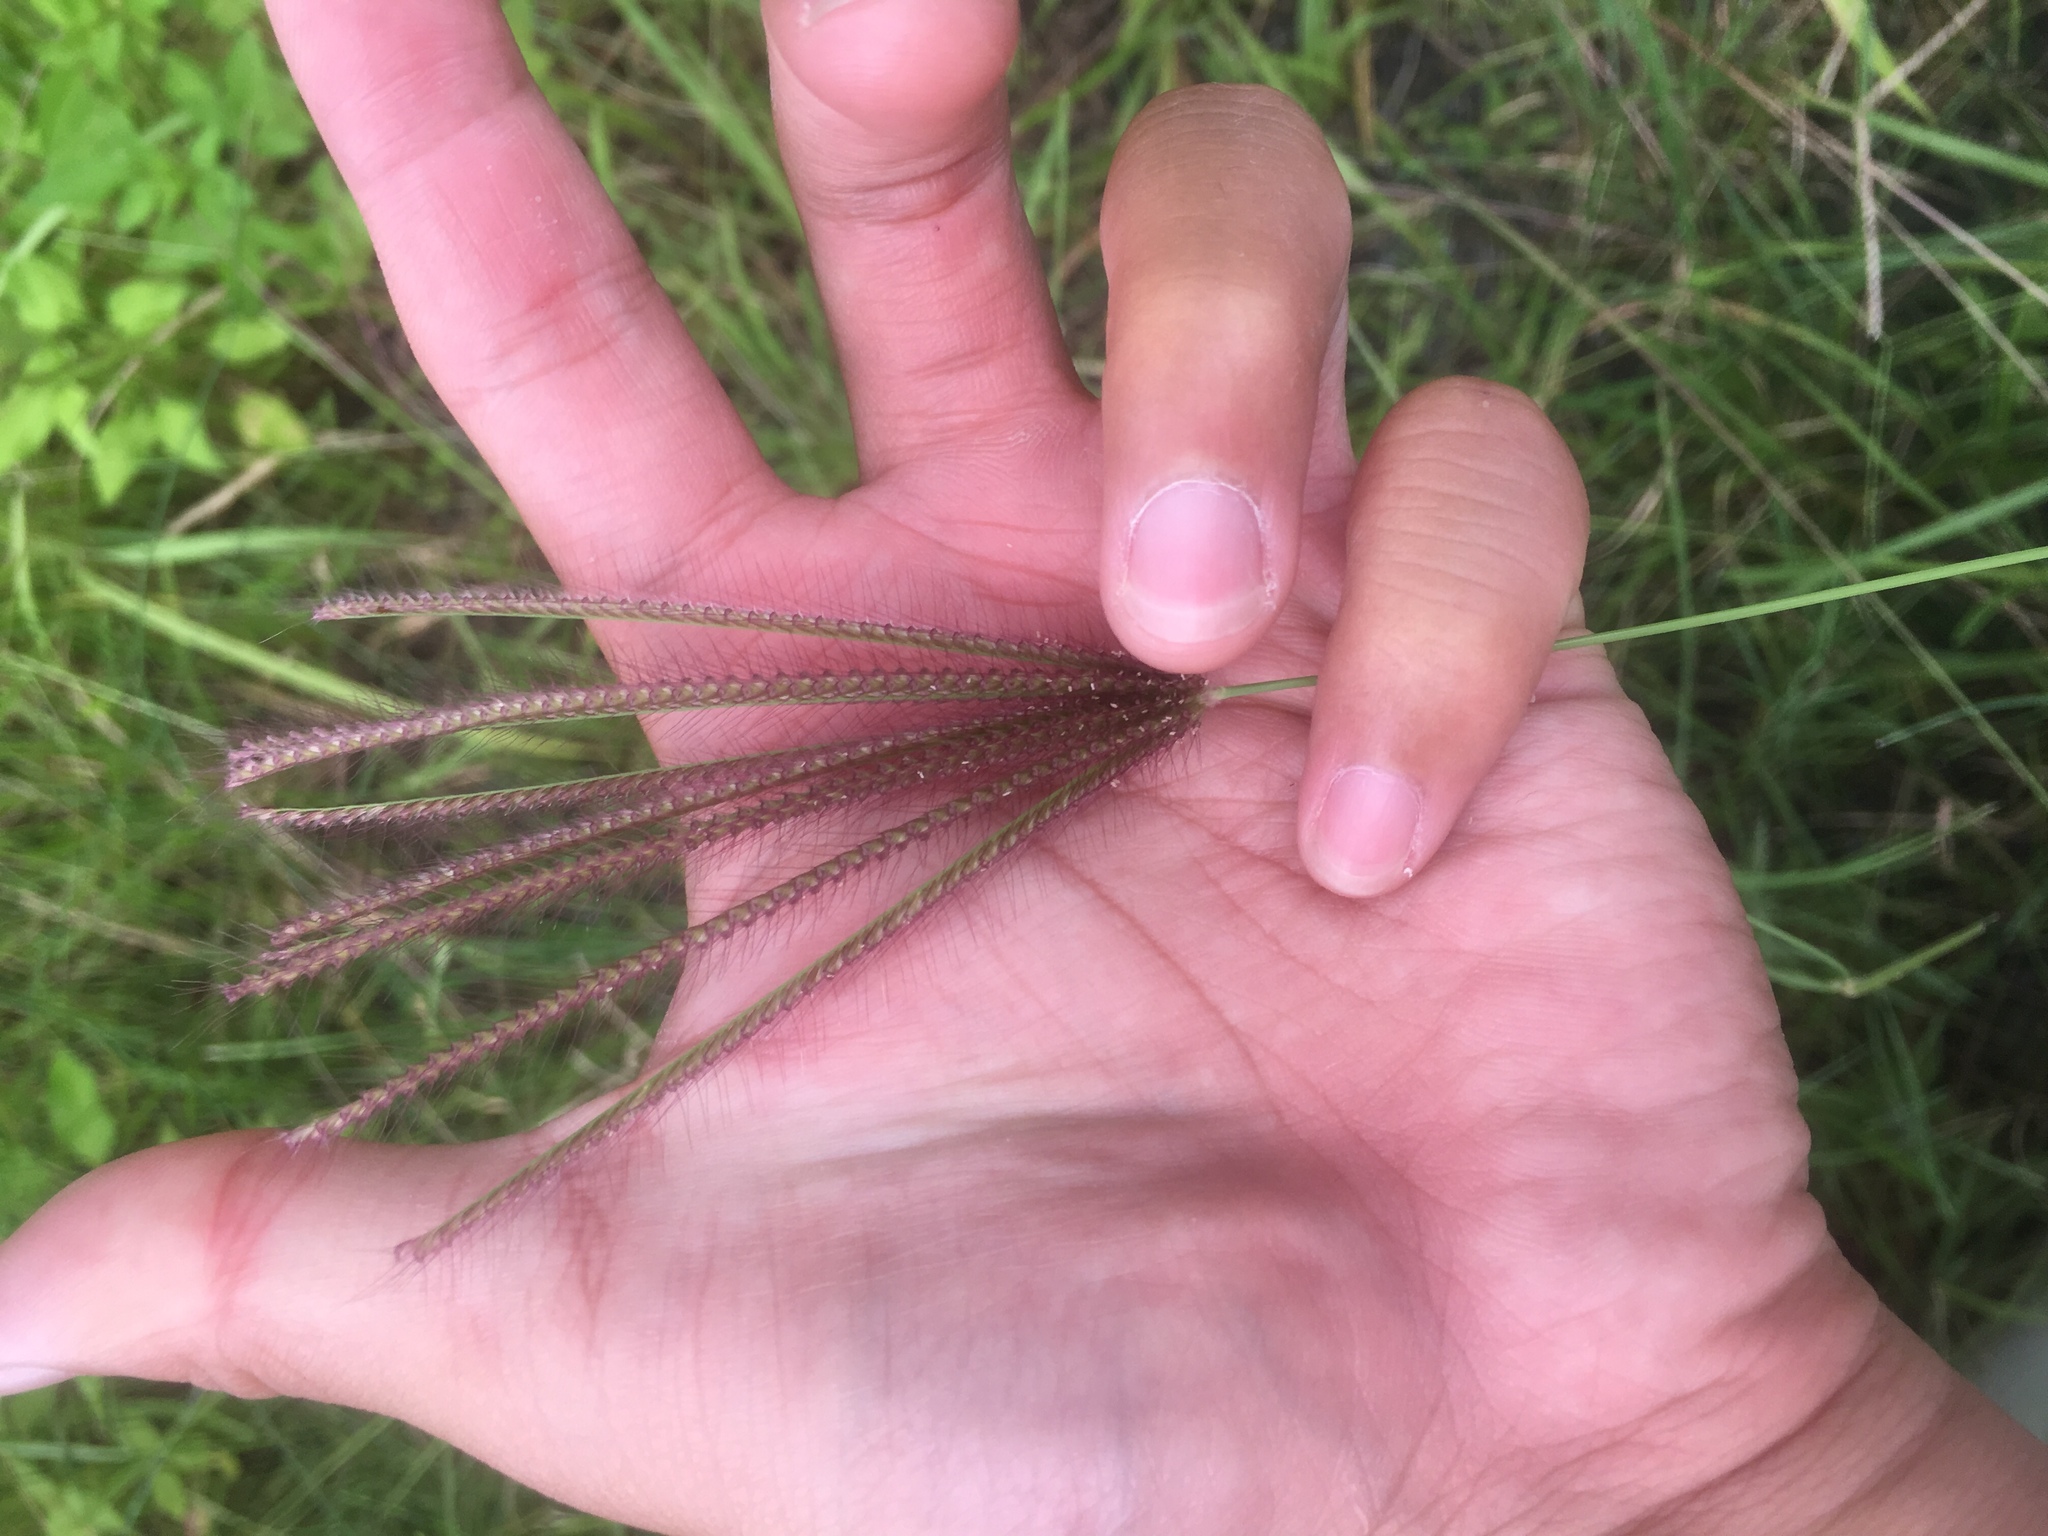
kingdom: Plantae
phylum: Tracheophyta
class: Liliopsida
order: Poales
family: Poaceae
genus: Chloris
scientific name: Chloris barbata
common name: Swollen fingergrass
